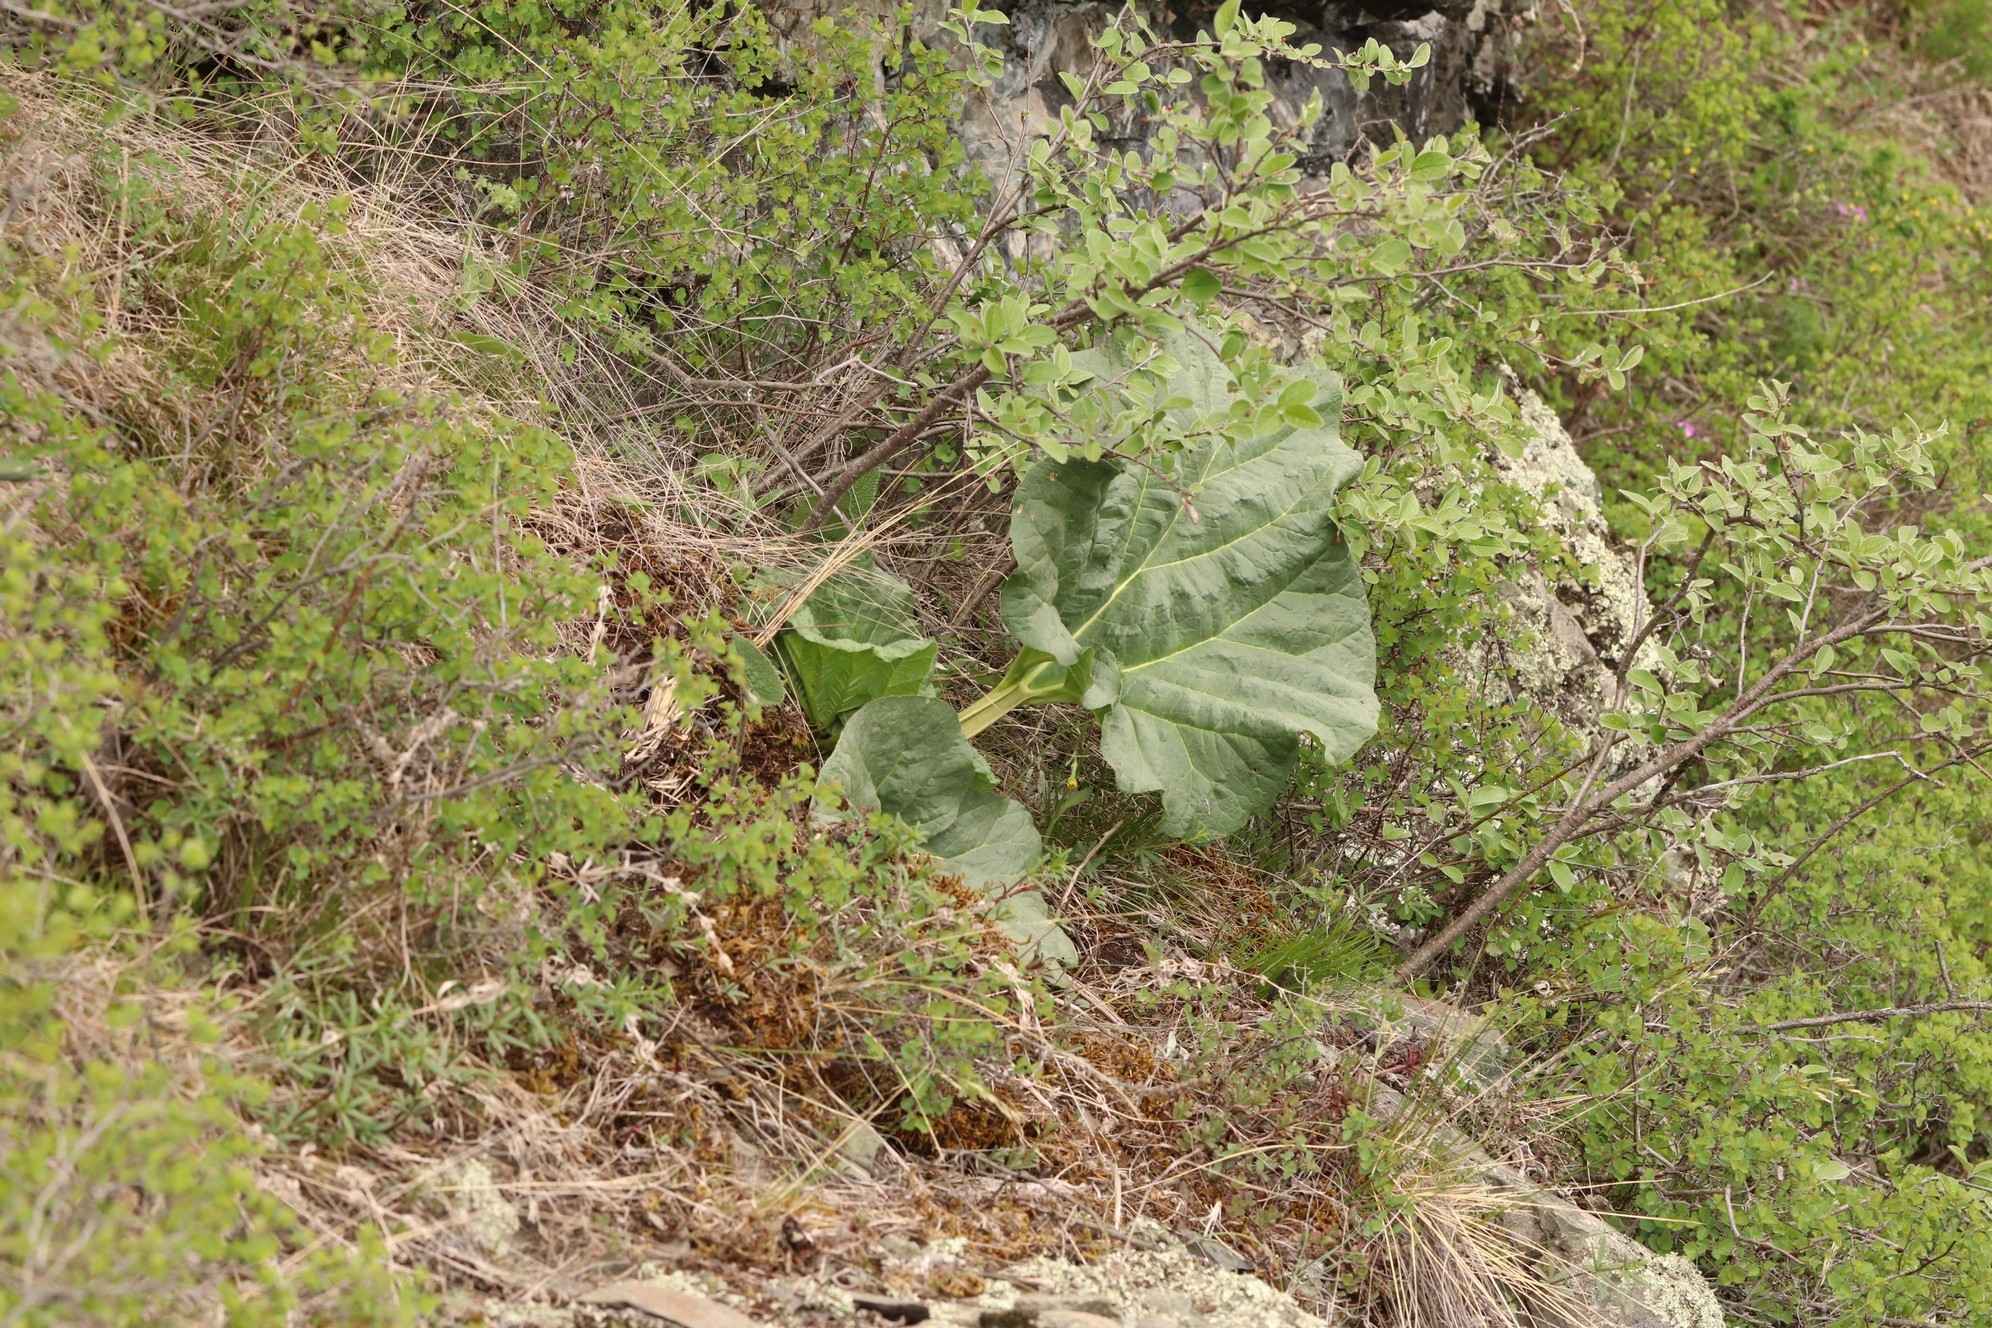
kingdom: Plantae
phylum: Tracheophyta
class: Magnoliopsida
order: Caryophyllales
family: Polygonaceae
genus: Rheum
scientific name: Rheum compactum
